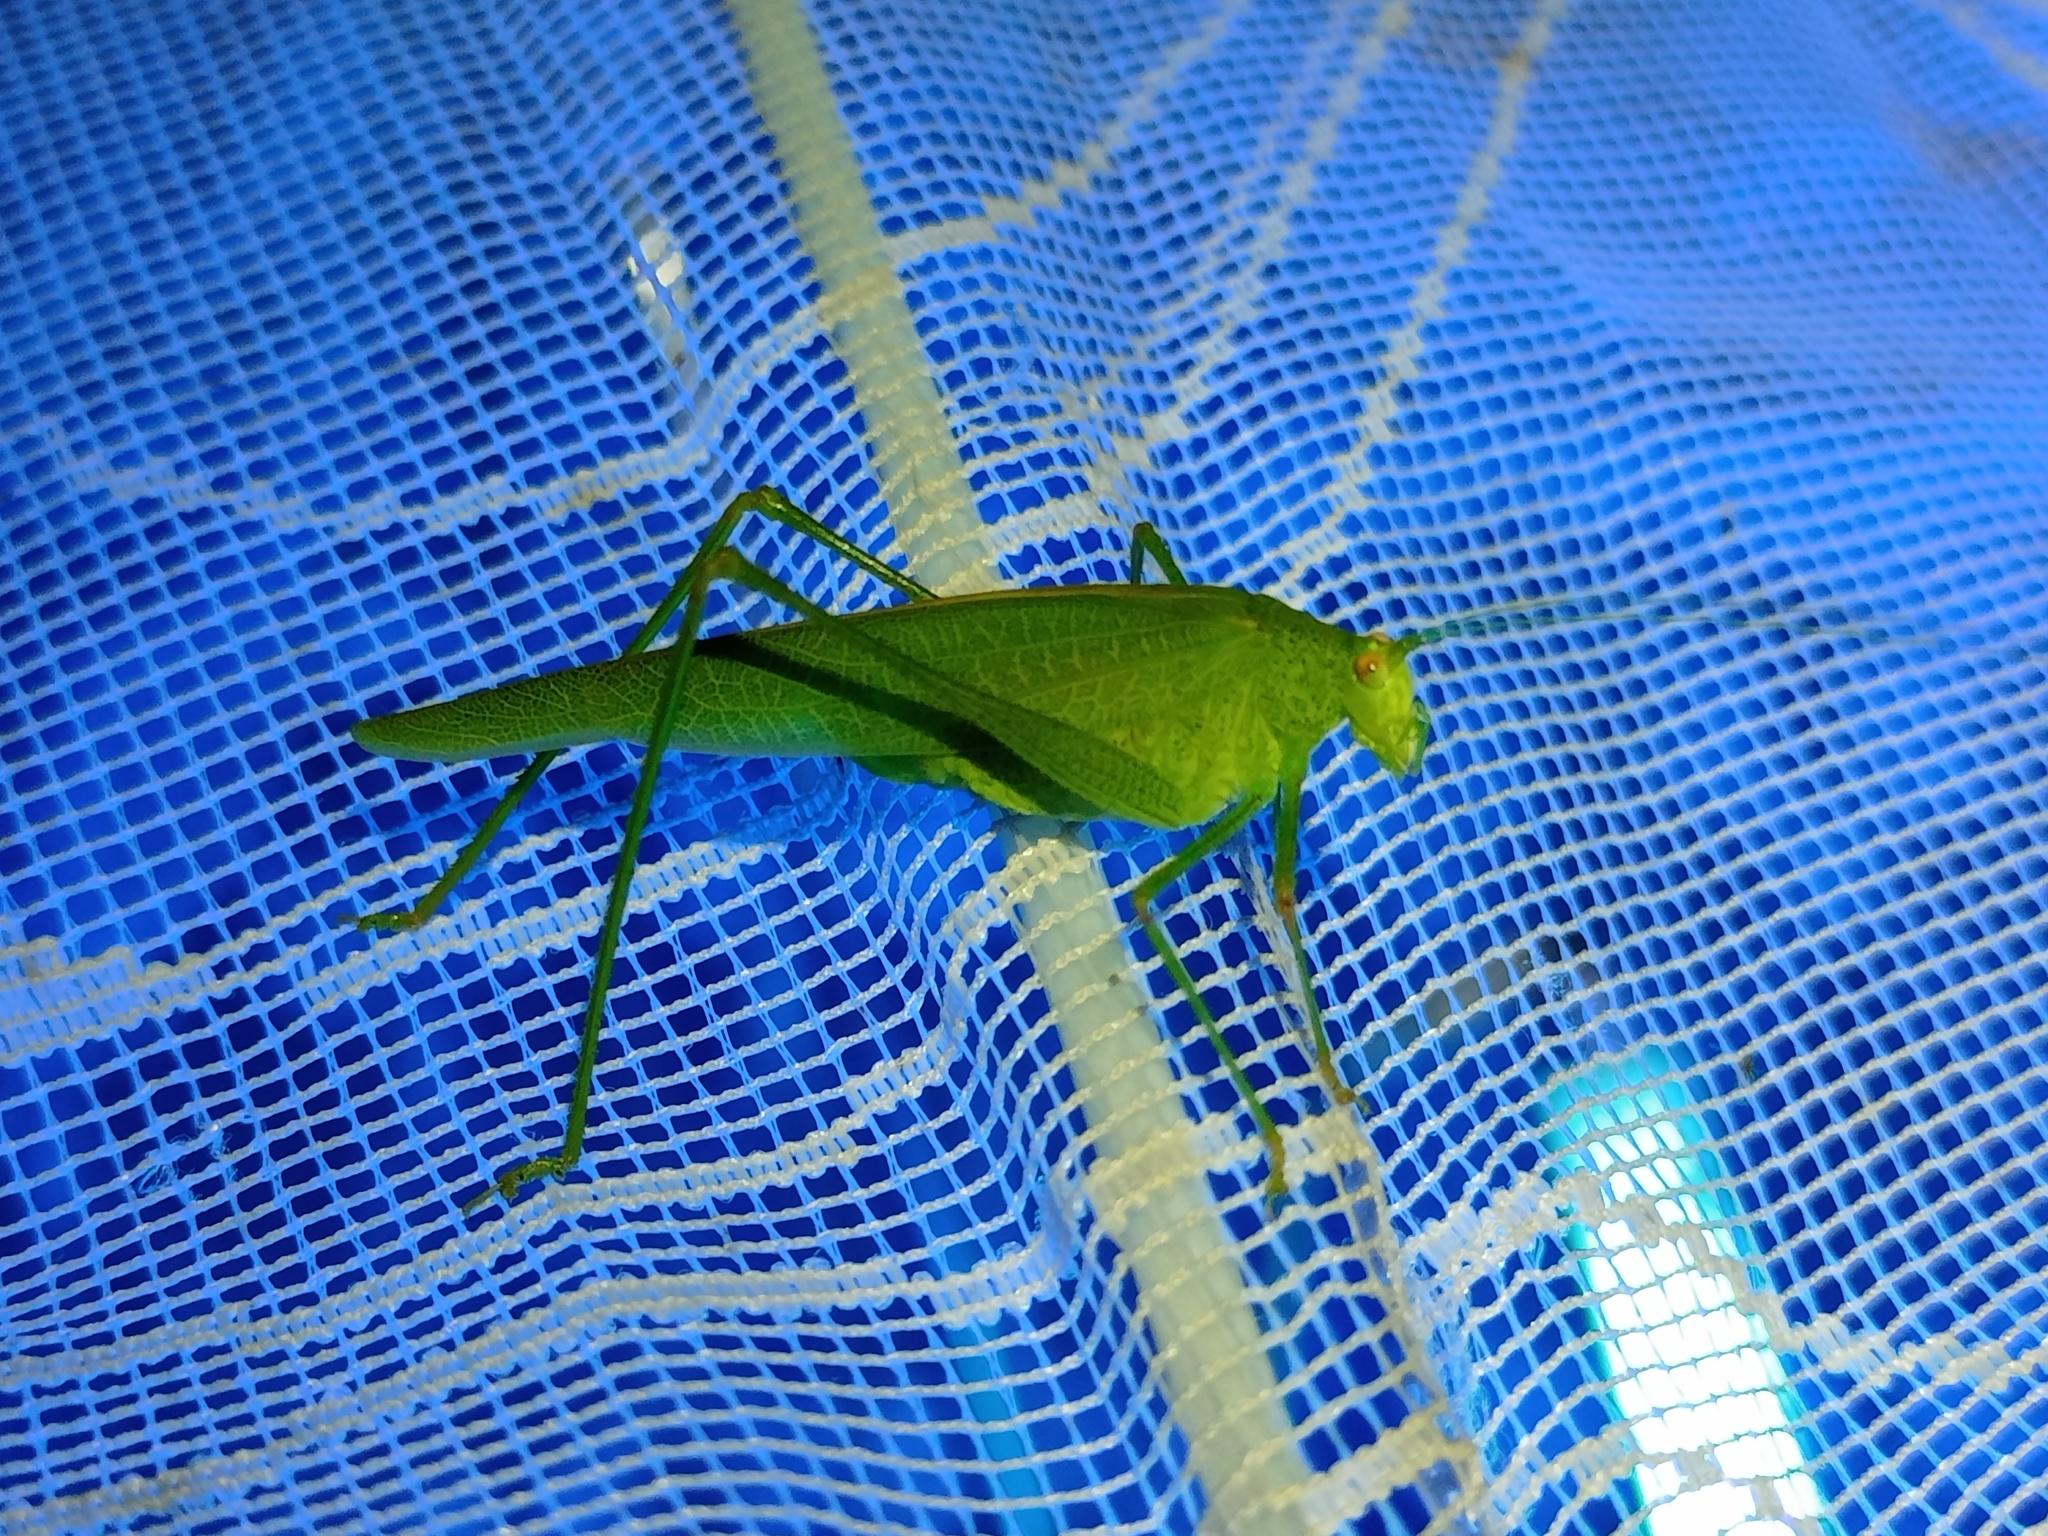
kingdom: Animalia
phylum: Arthropoda
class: Insecta
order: Orthoptera
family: Tettigoniidae
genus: Phaneroptera
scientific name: Phaneroptera nana
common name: Southern sickle bush-cricket
